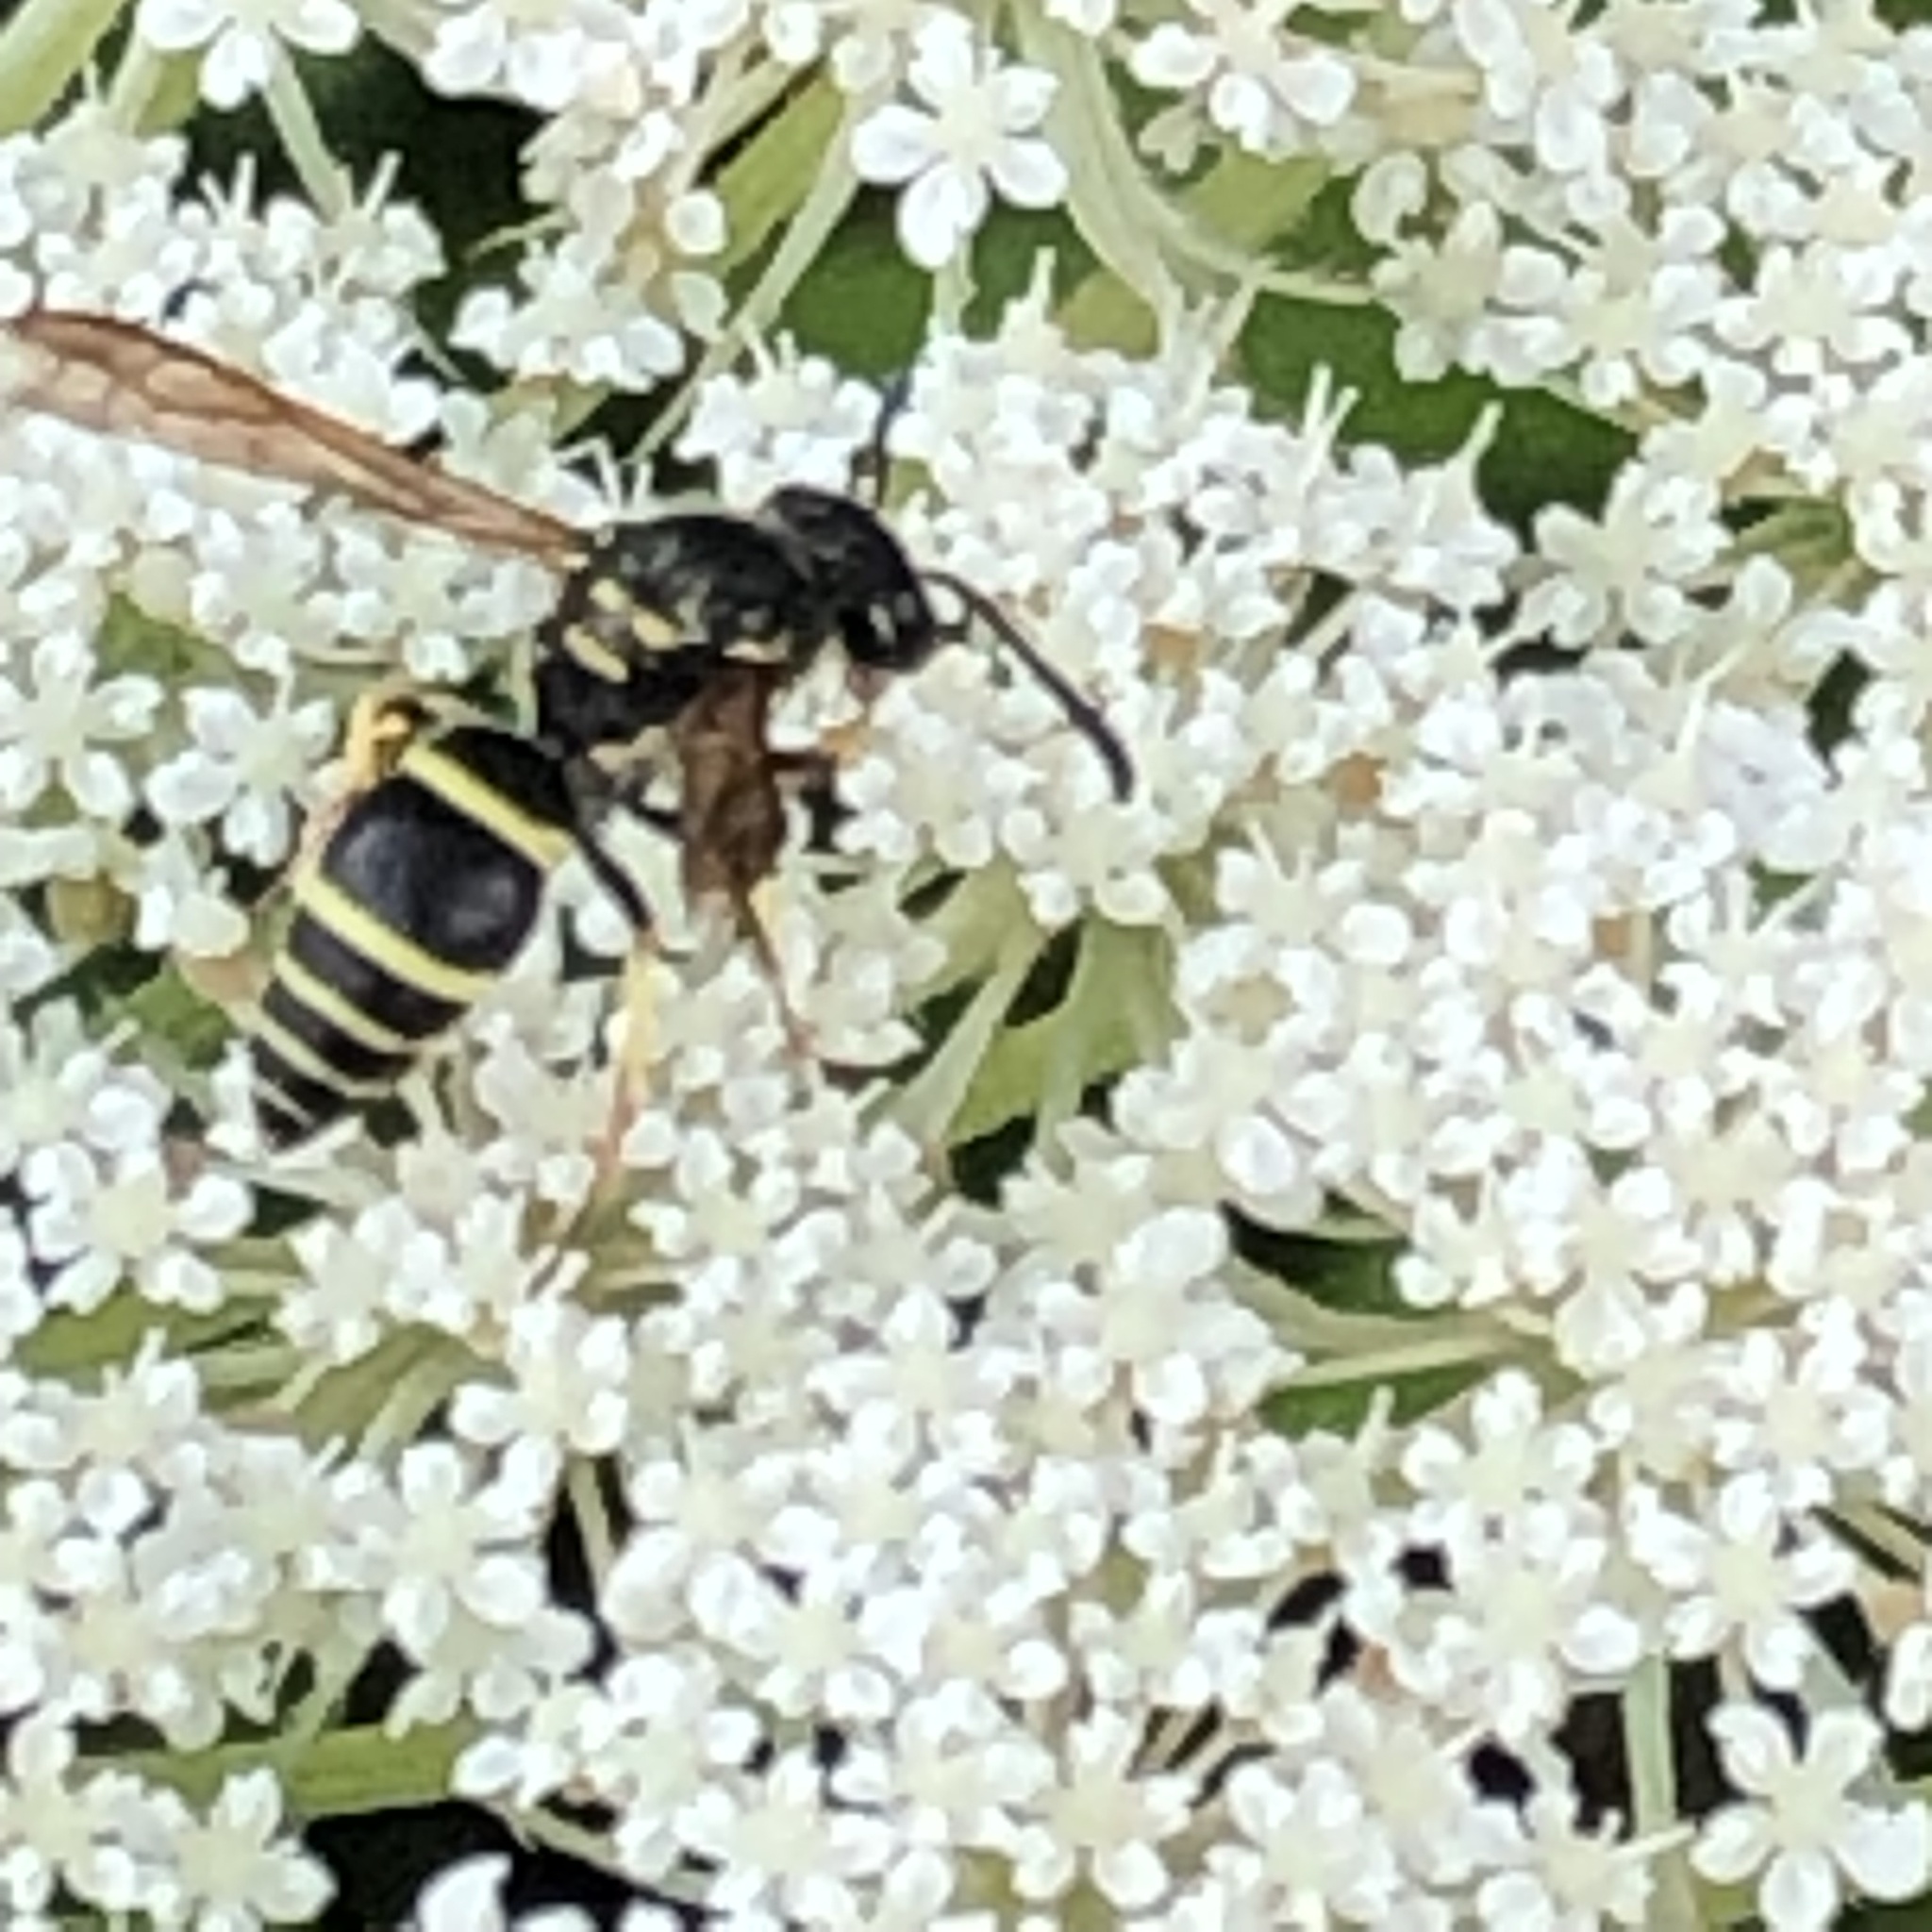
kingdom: Animalia
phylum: Arthropoda
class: Insecta
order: Hymenoptera
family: Vespidae
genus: Ancistrocerus
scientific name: Ancistrocerus adiabatus
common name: Bramble mason wasp
